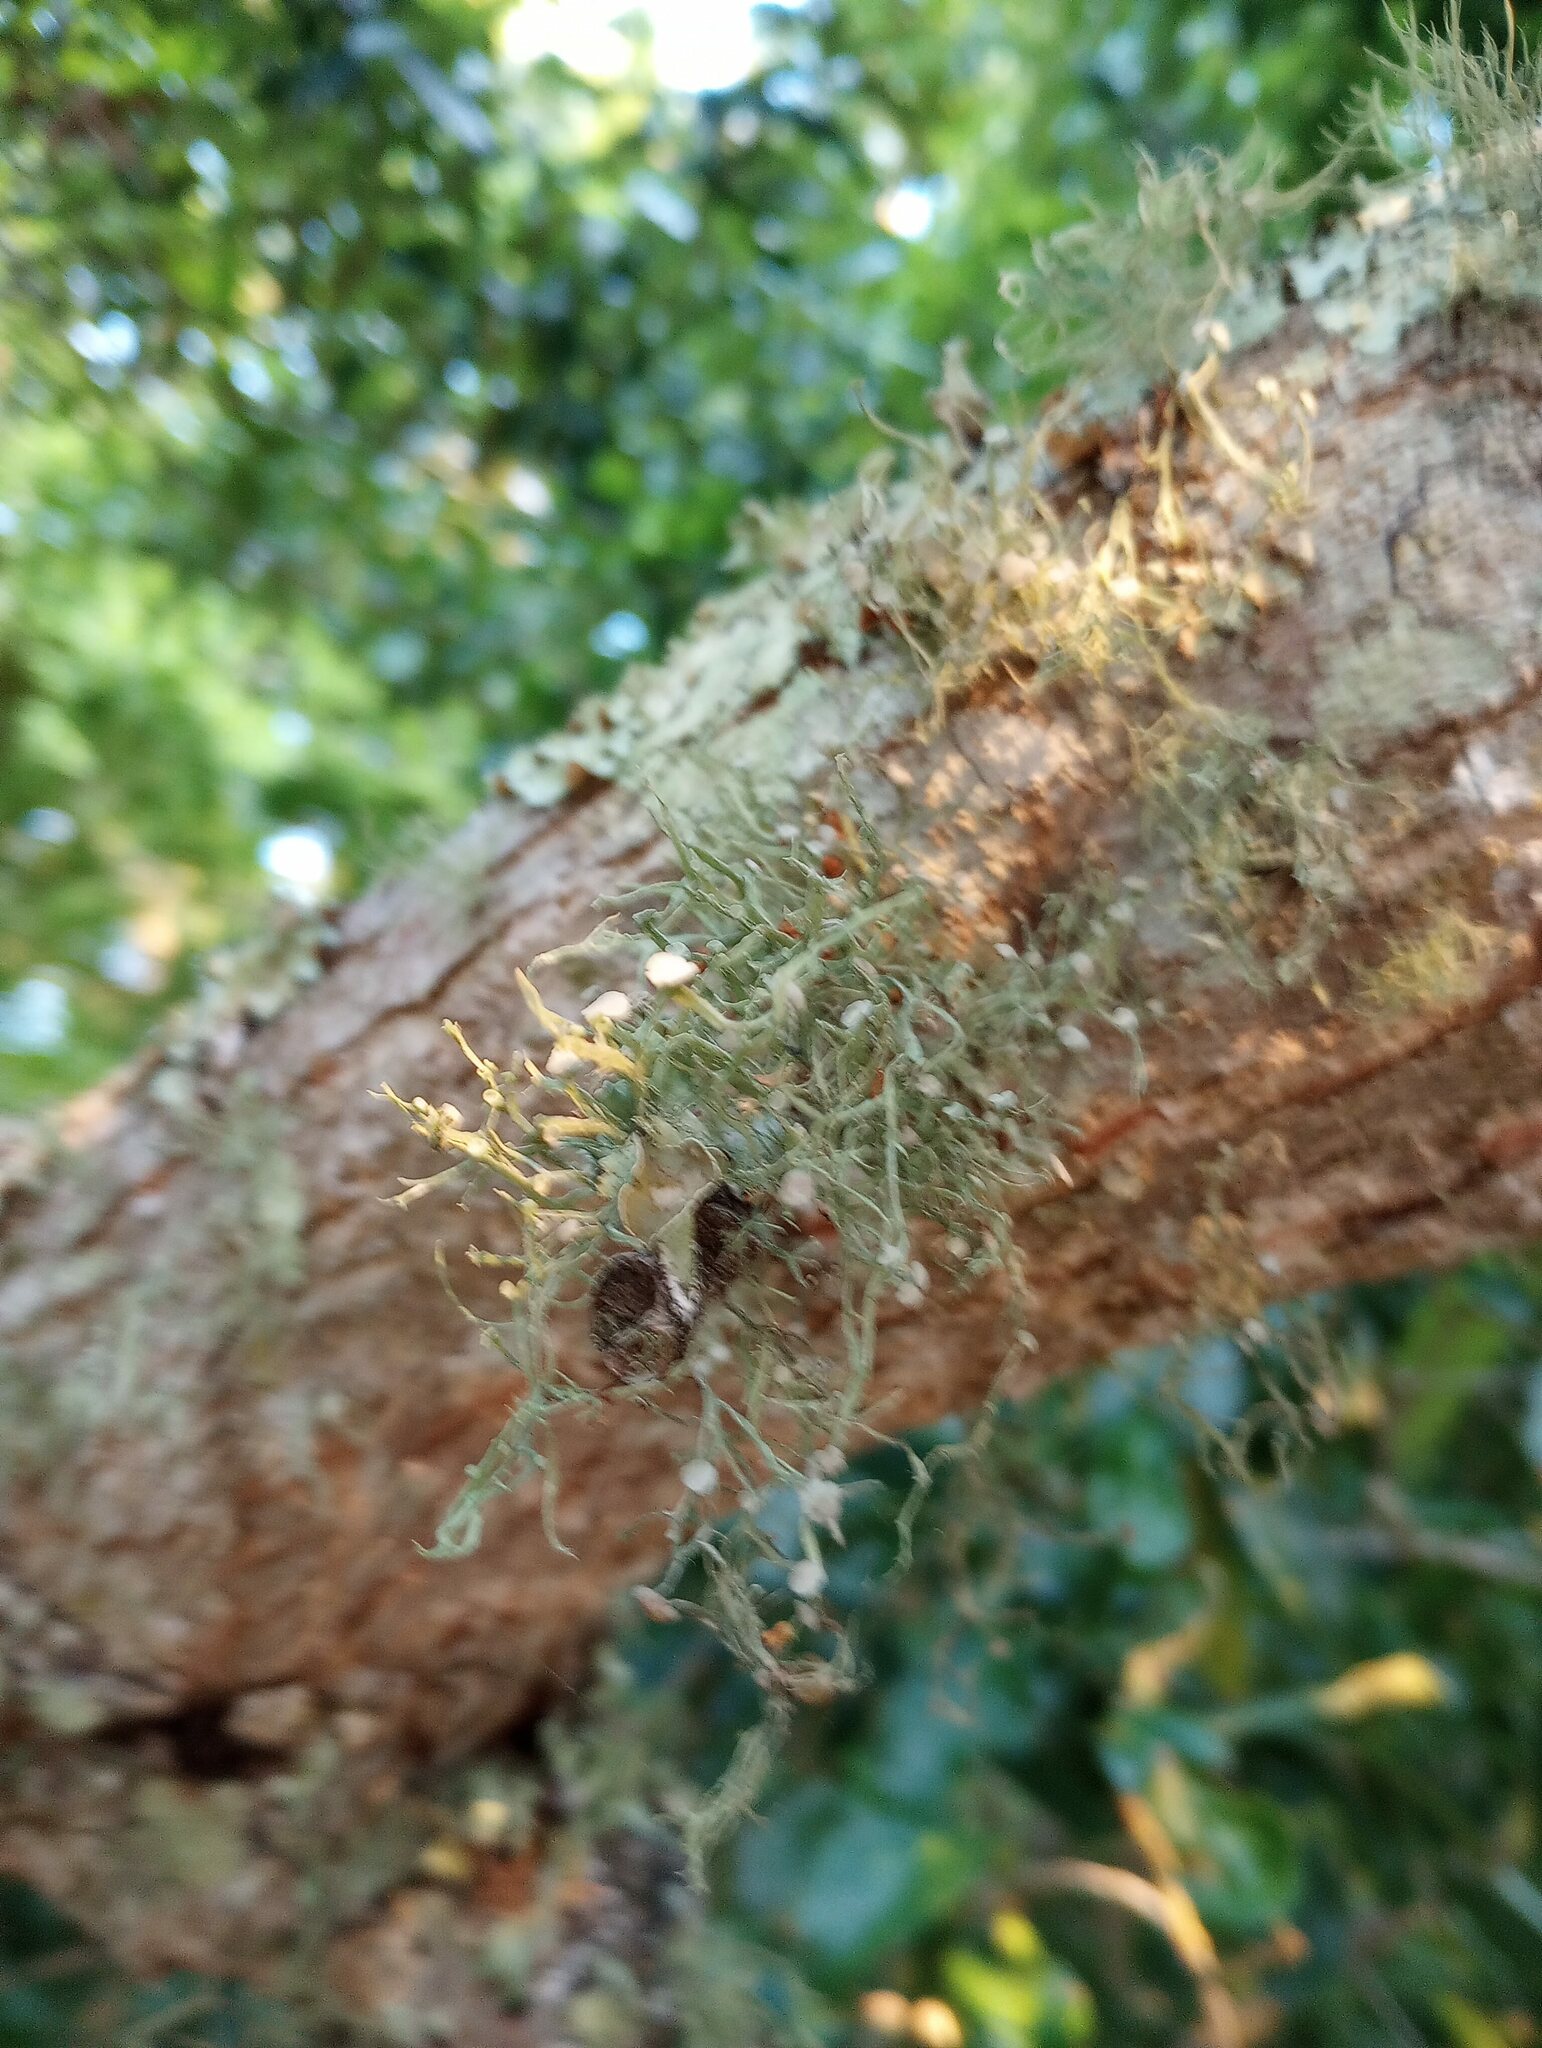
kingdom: Fungi
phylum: Ascomycota
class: Lecanoromycetes
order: Lecanorales
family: Ramalinaceae
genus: Ramalina
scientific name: Ramalina
